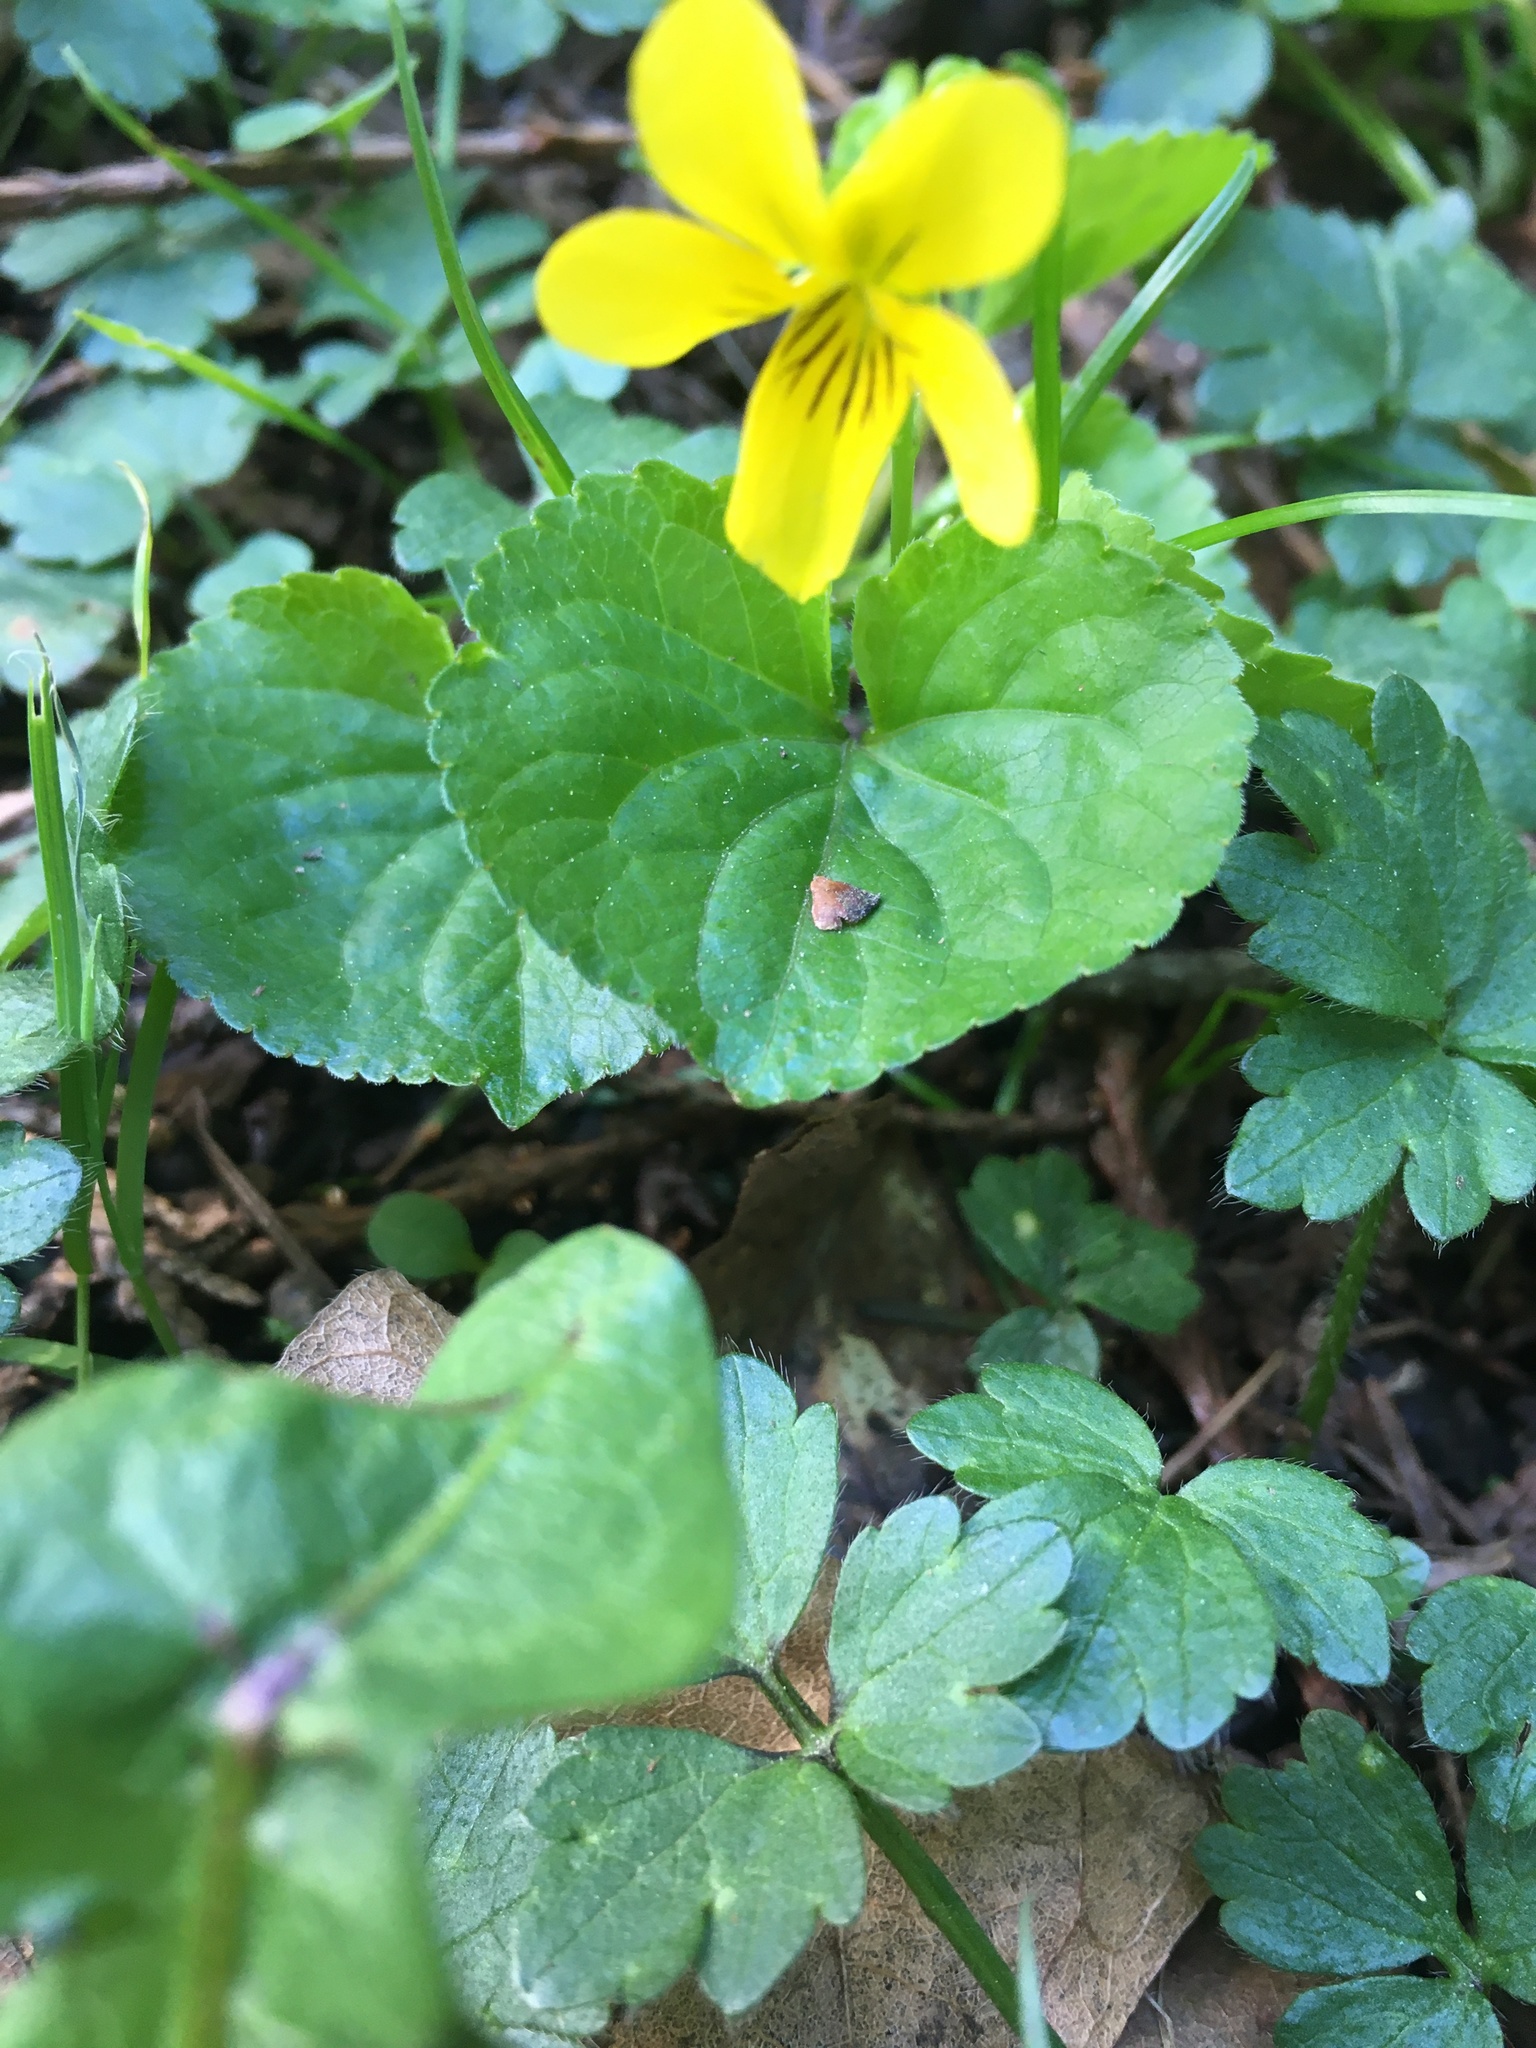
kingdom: Plantae
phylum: Tracheophyta
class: Magnoliopsida
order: Malpighiales
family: Violaceae
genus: Viola
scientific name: Viola glabella
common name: Stream violet
